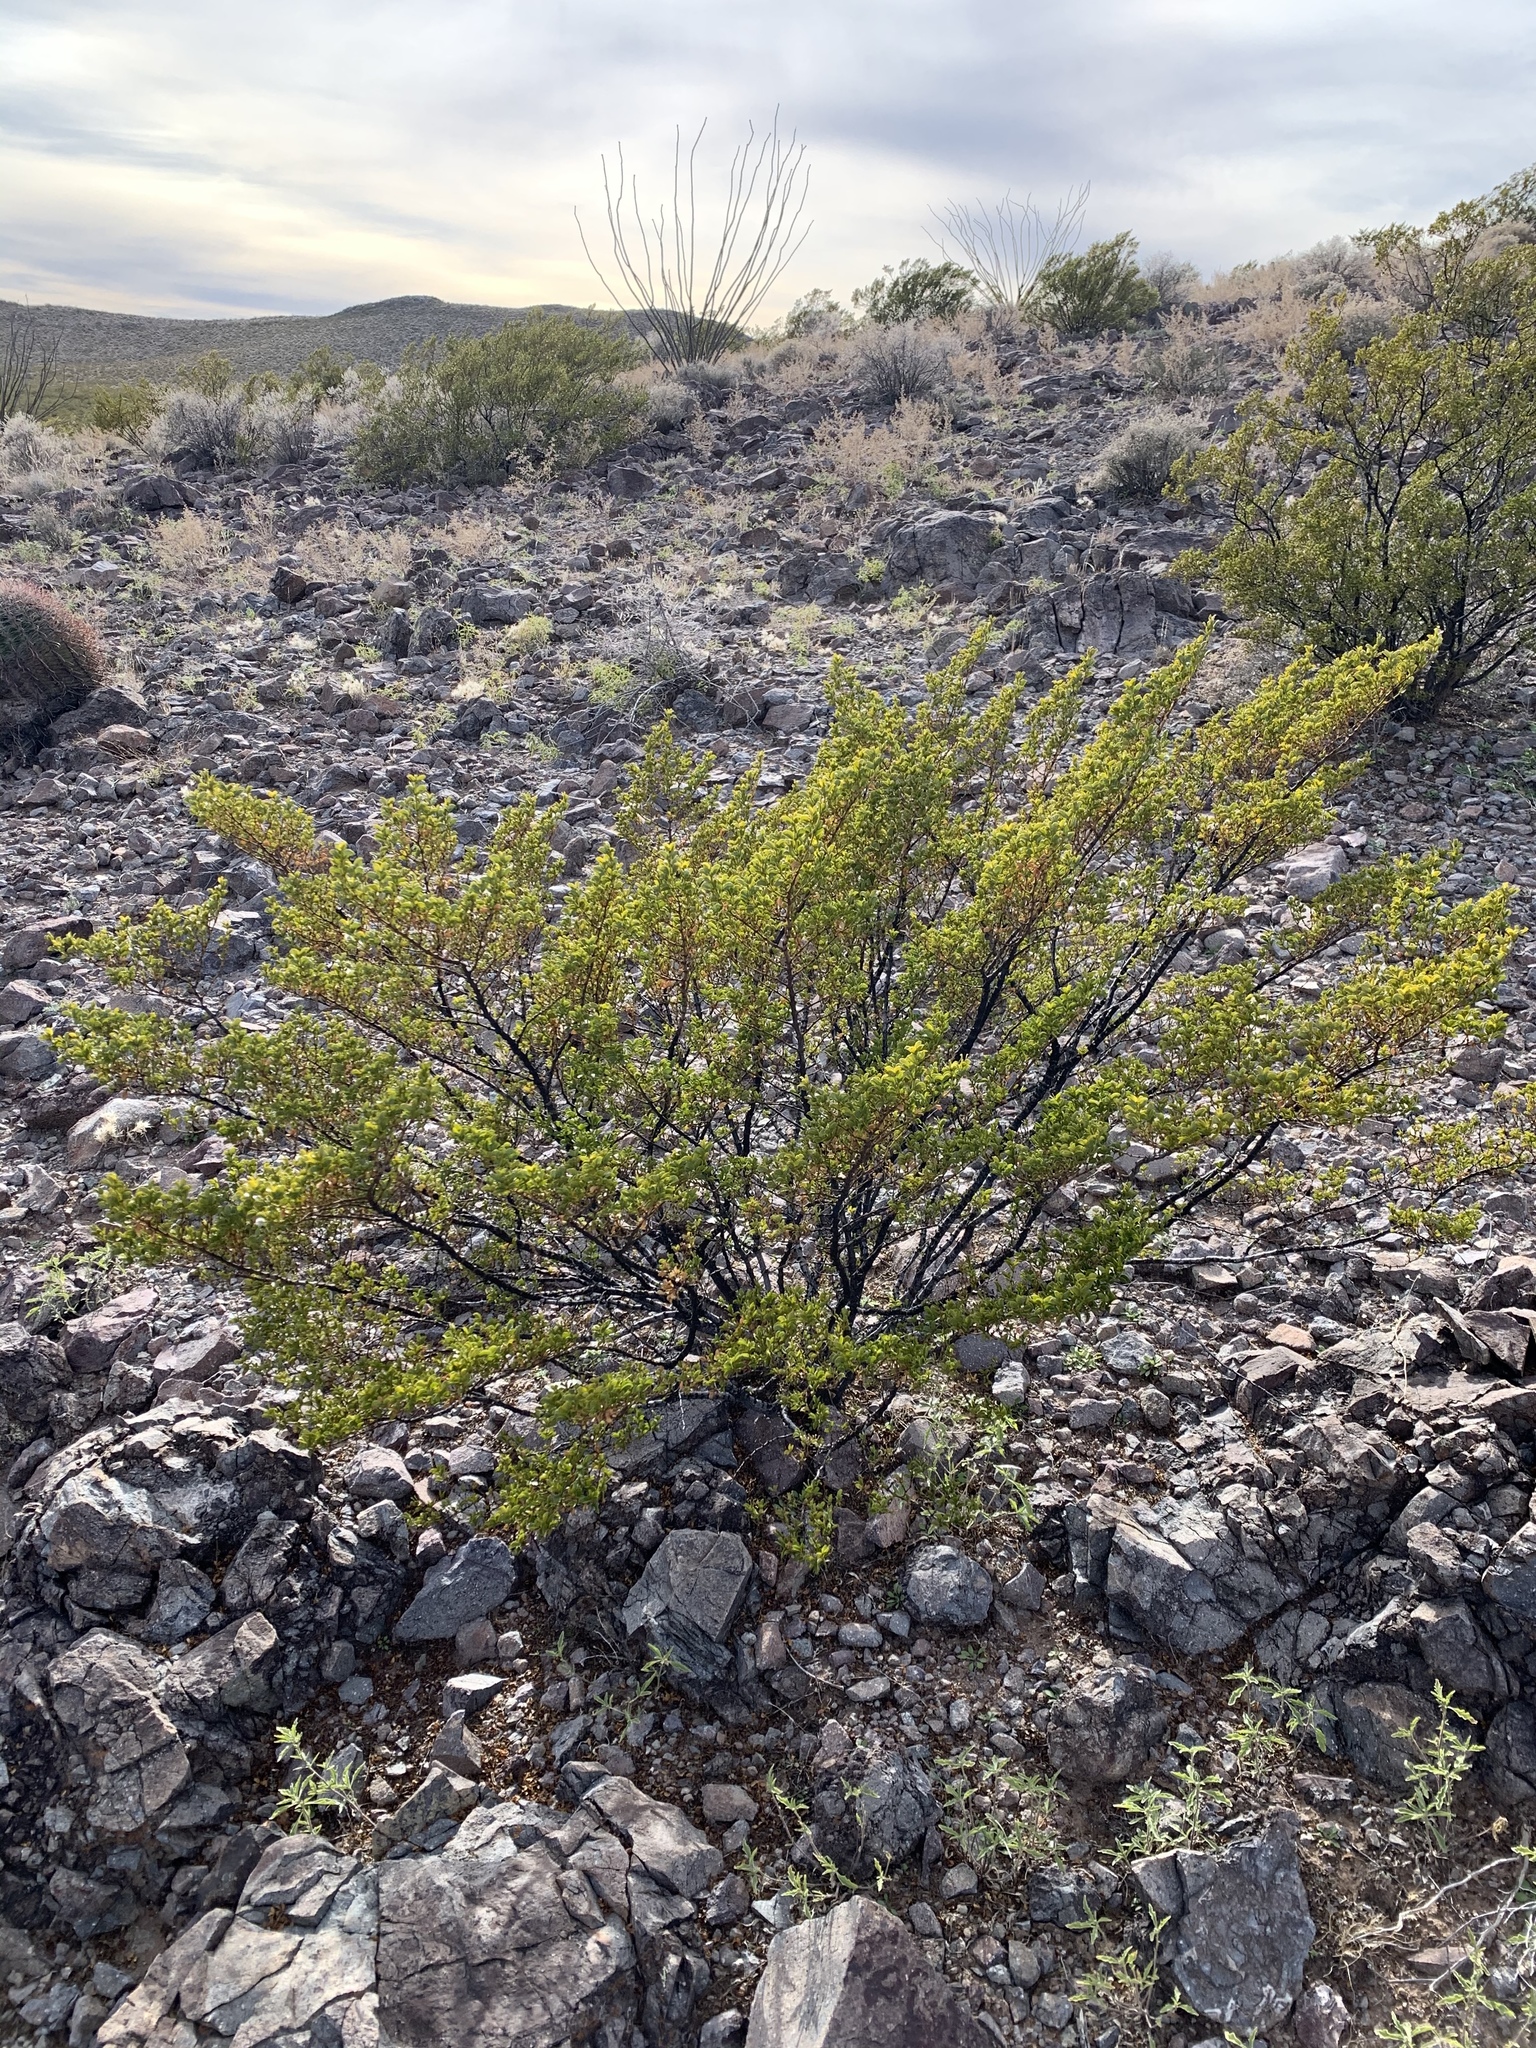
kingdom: Plantae
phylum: Tracheophyta
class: Magnoliopsida
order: Zygophyllales
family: Zygophyllaceae
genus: Larrea
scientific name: Larrea tridentata
